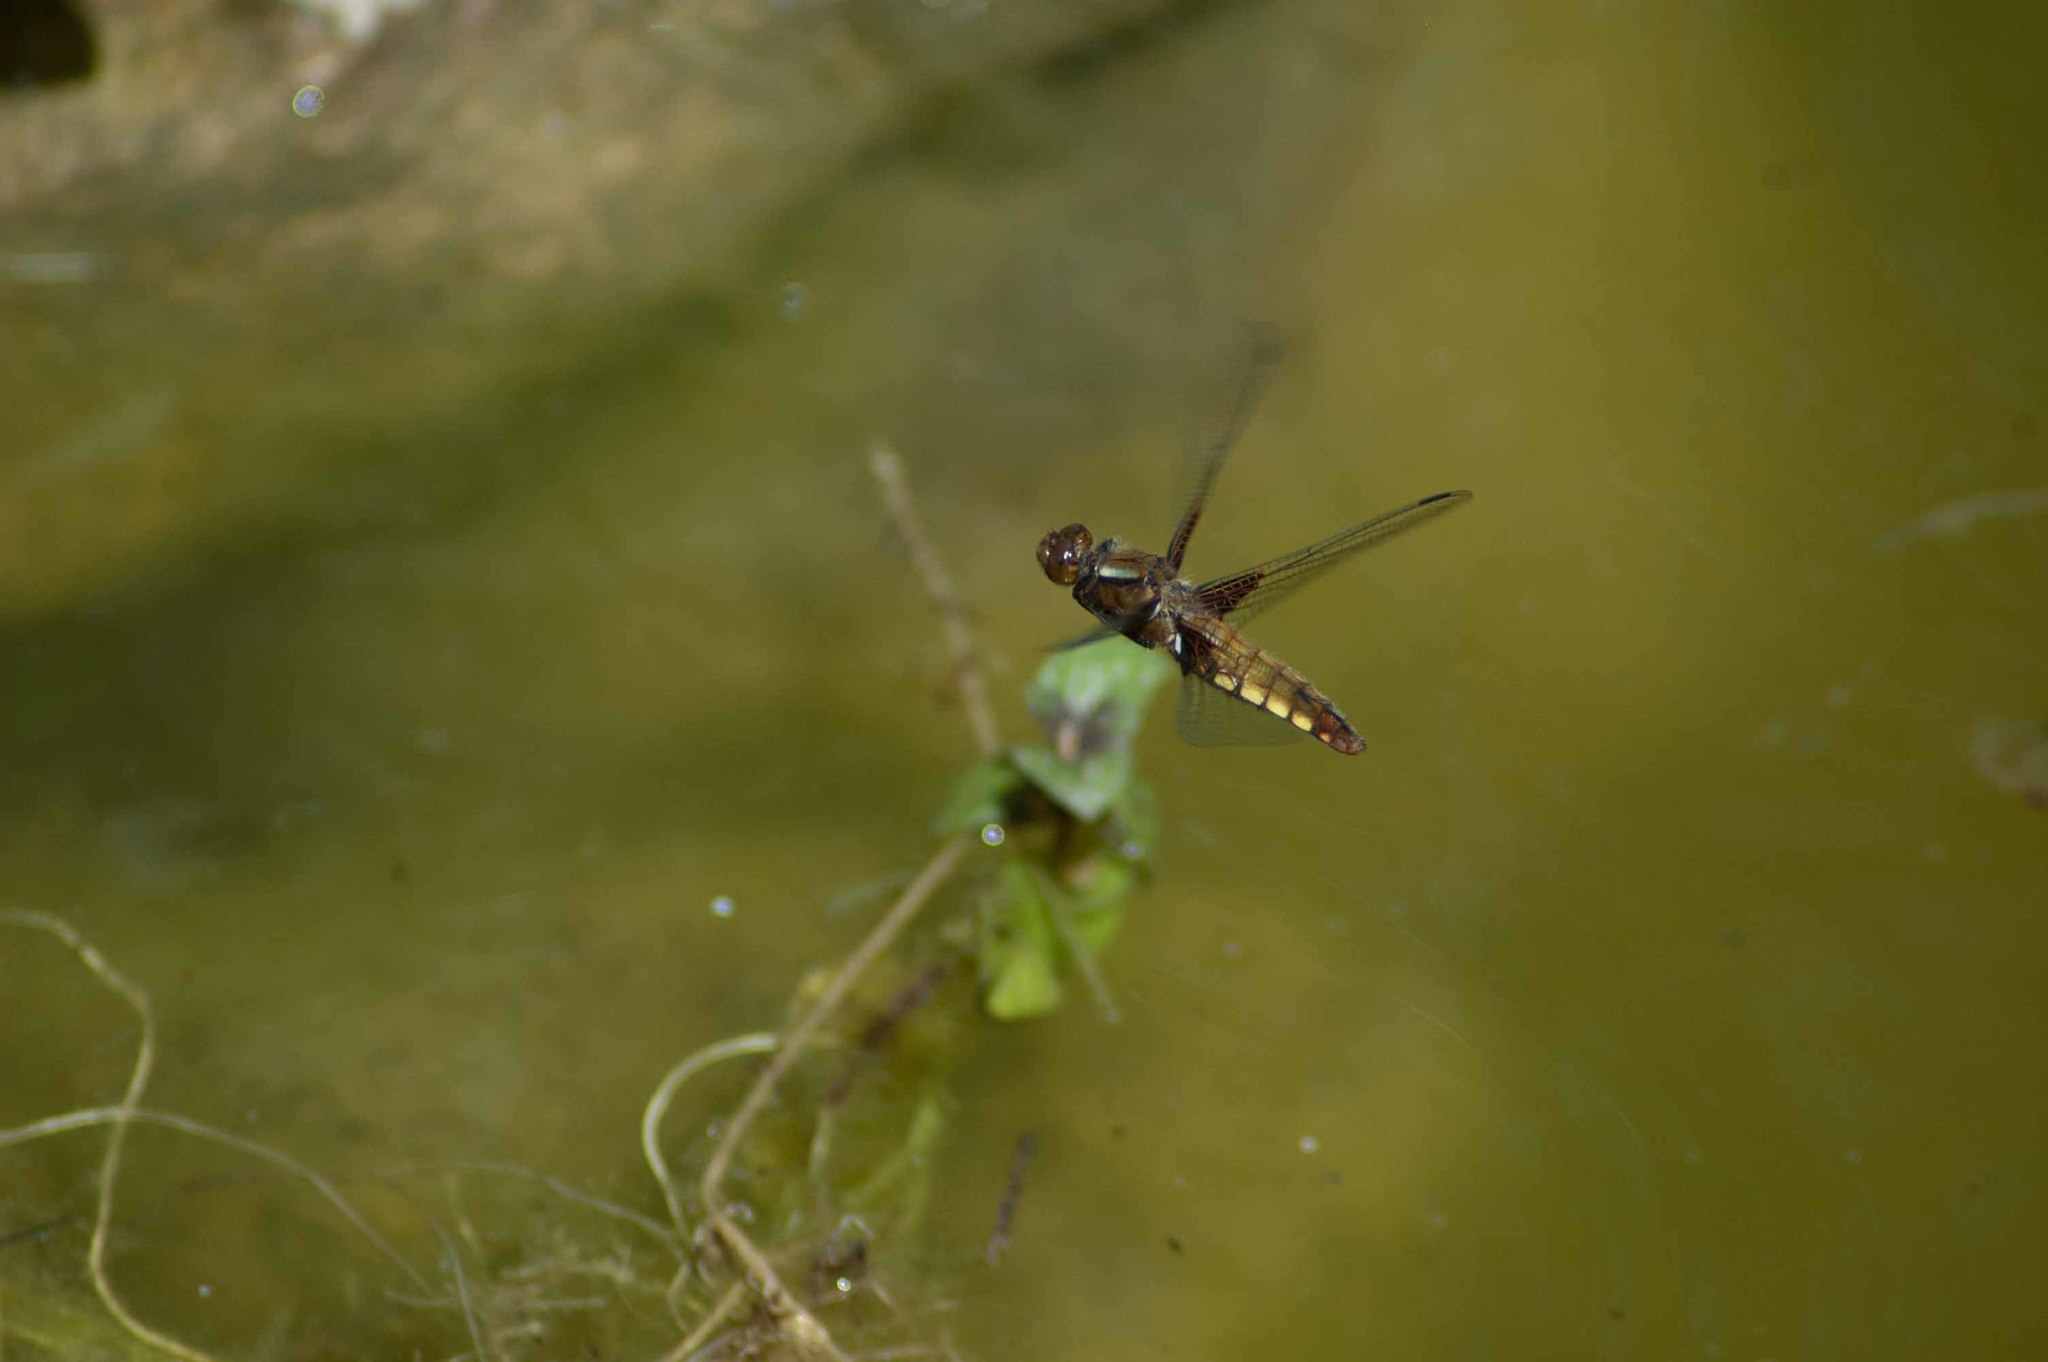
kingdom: Animalia
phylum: Arthropoda
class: Insecta
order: Odonata
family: Libellulidae
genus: Libellula
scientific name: Libellula depressa
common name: Broad-bodied chaser
